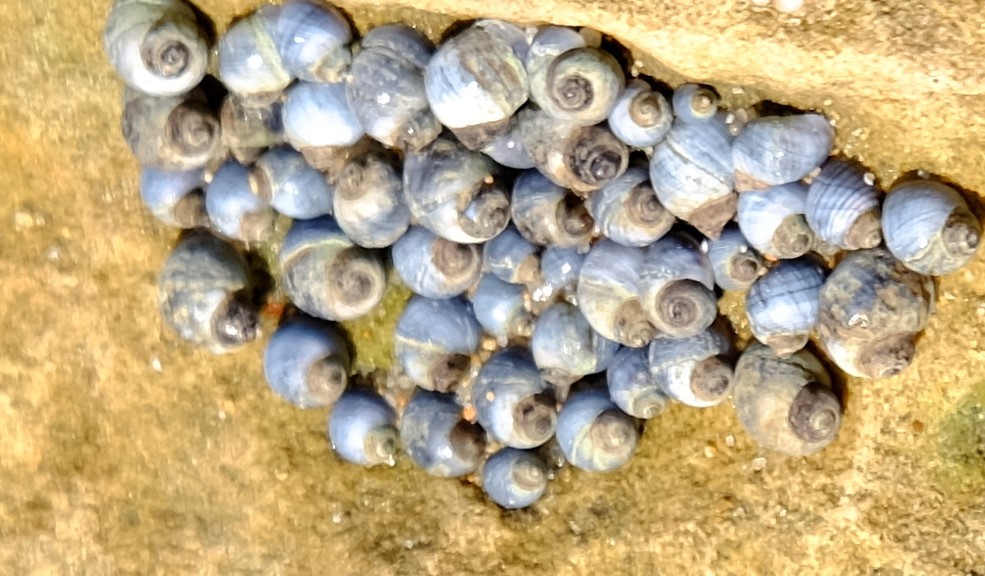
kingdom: Animalia
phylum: Mollusca
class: Gastropoda
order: Littorinimorpha
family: Littorinidae
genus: Austrolittorina
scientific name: Austrolittorina unifasciata
